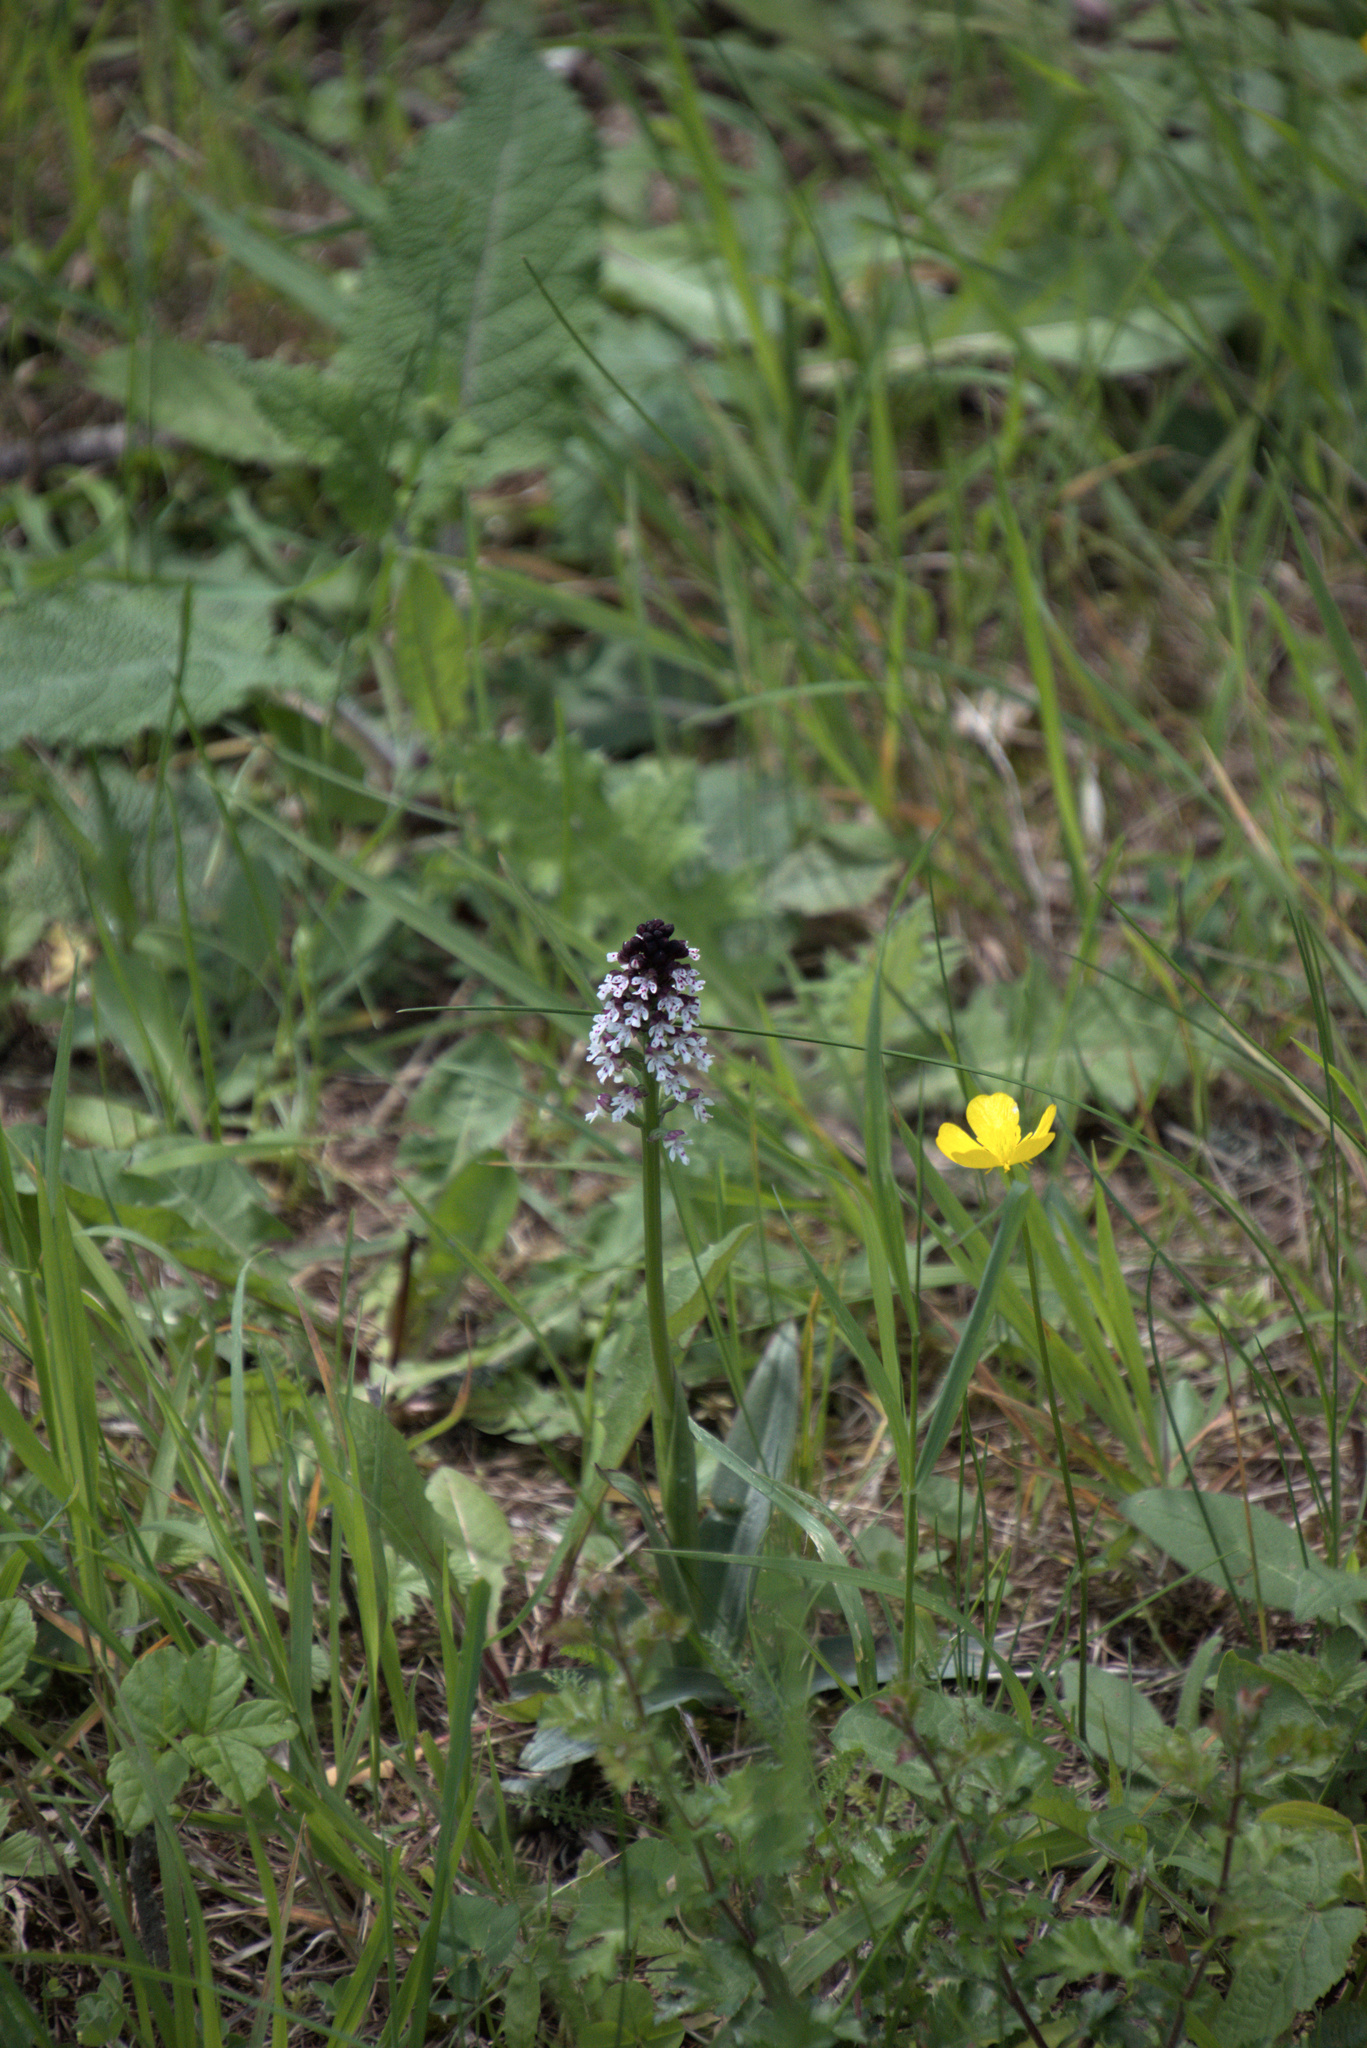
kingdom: Plantae
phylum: Tracheophyta
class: Liliopsida
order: Asparagales
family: Orchidaceae
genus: Neotinea
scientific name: Neotinea ustulata
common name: Burnt orchid
